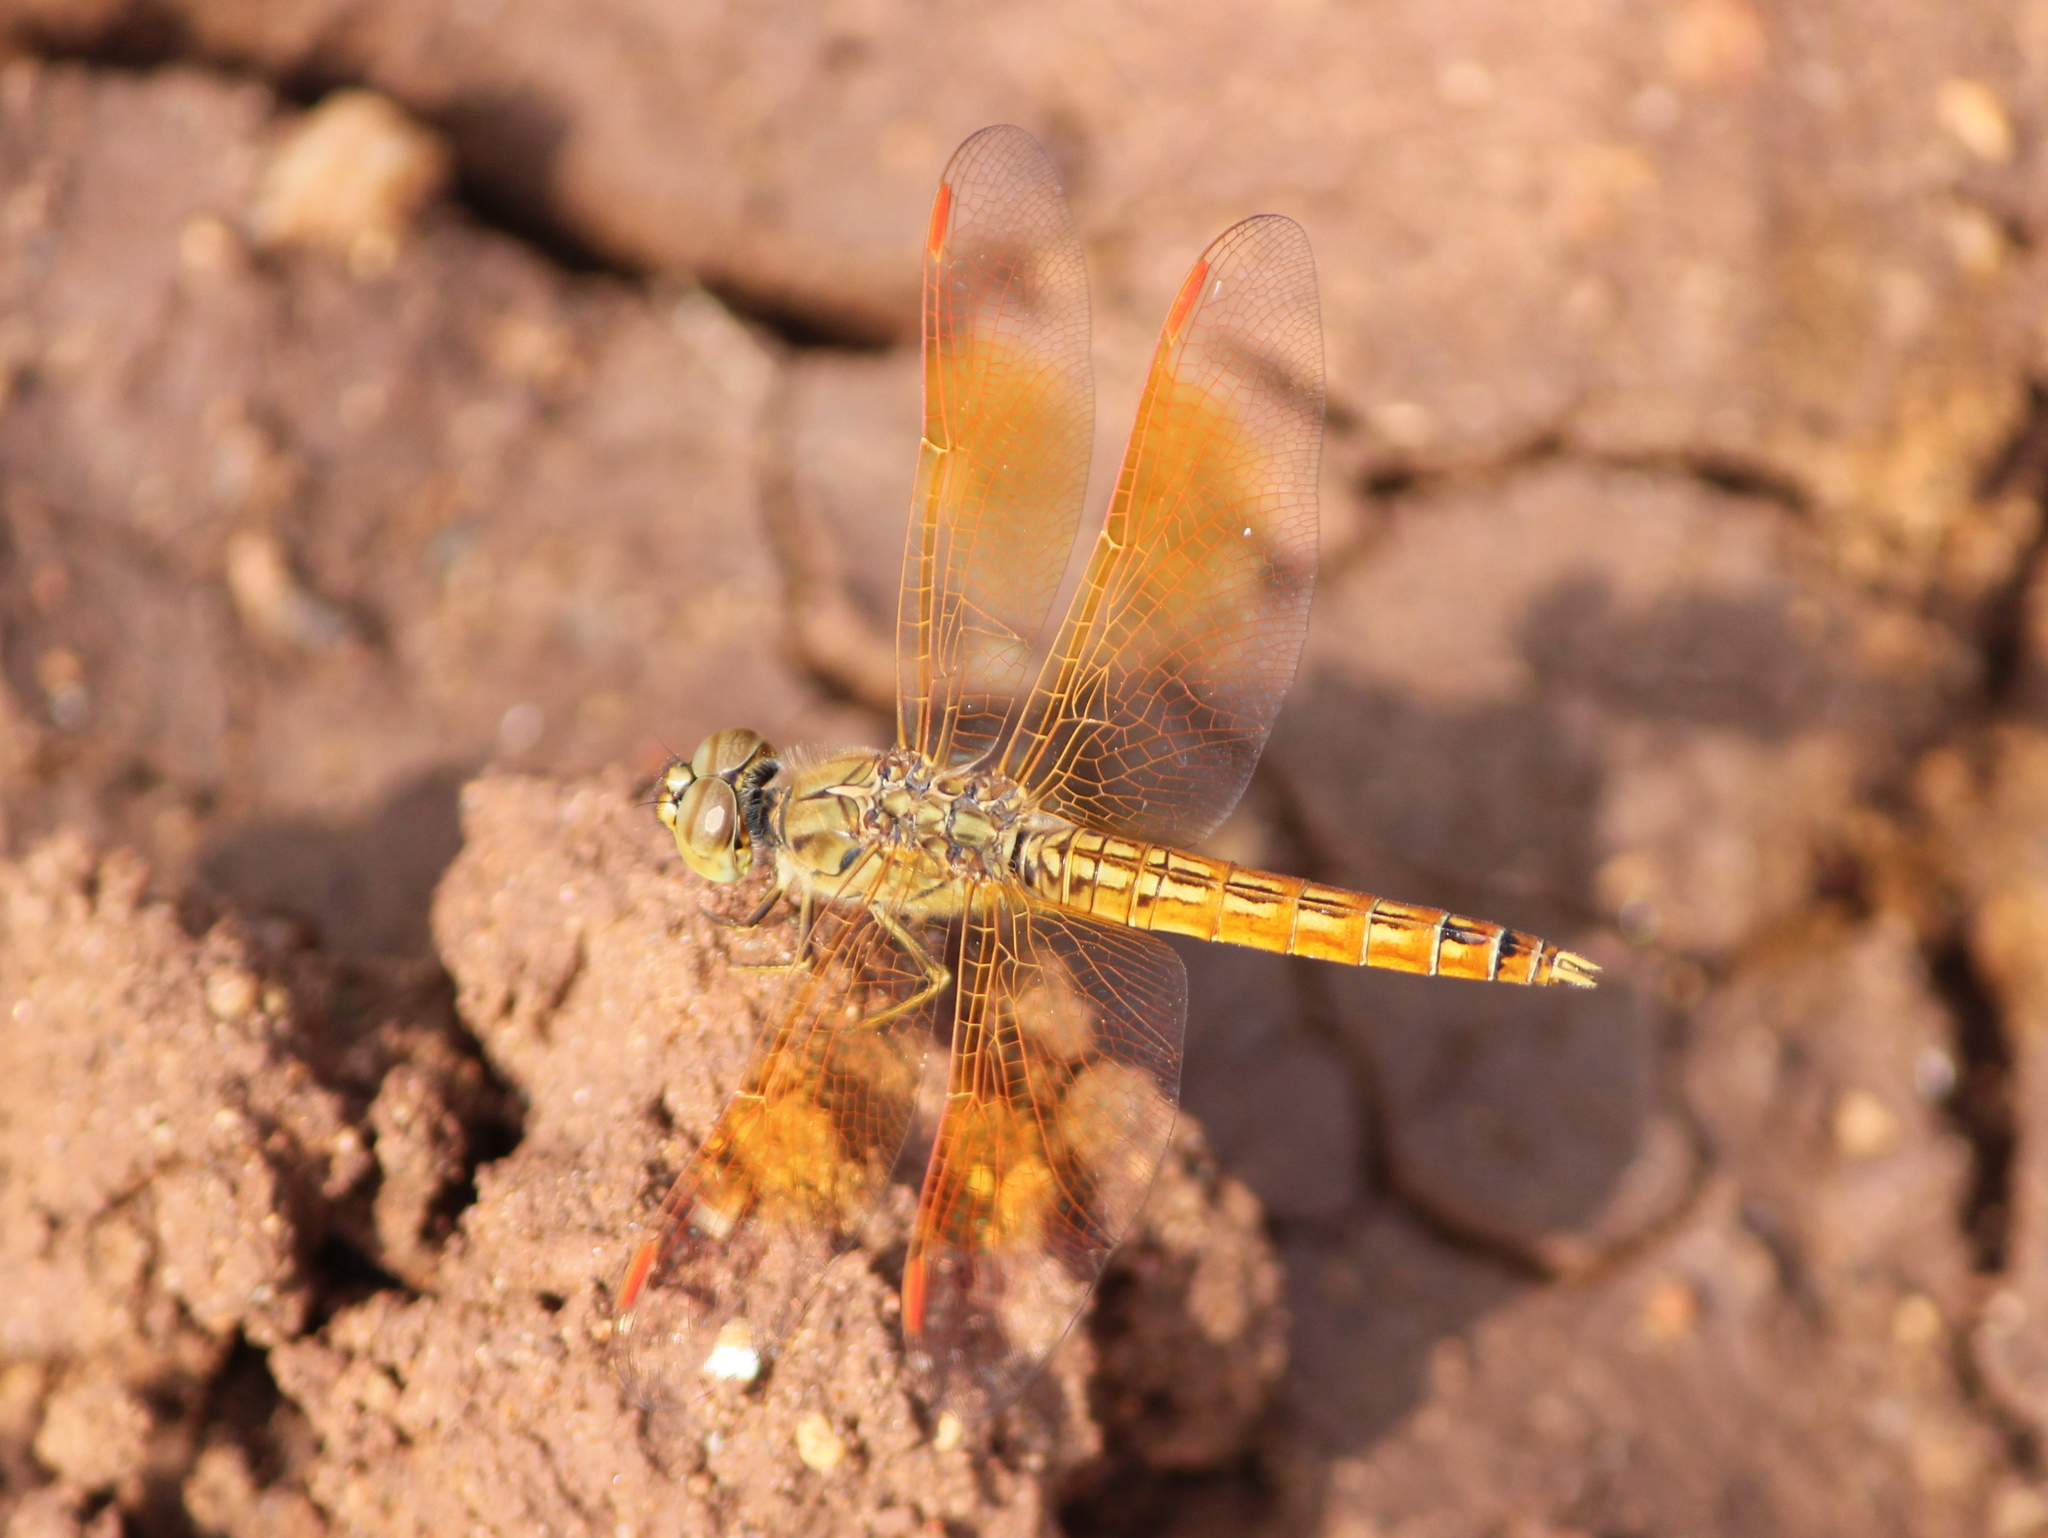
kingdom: Animalia
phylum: Arthropoda
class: Insecta
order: Odonata
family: Libellulidae
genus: Brachythemis
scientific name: Brachythemis contaminata
